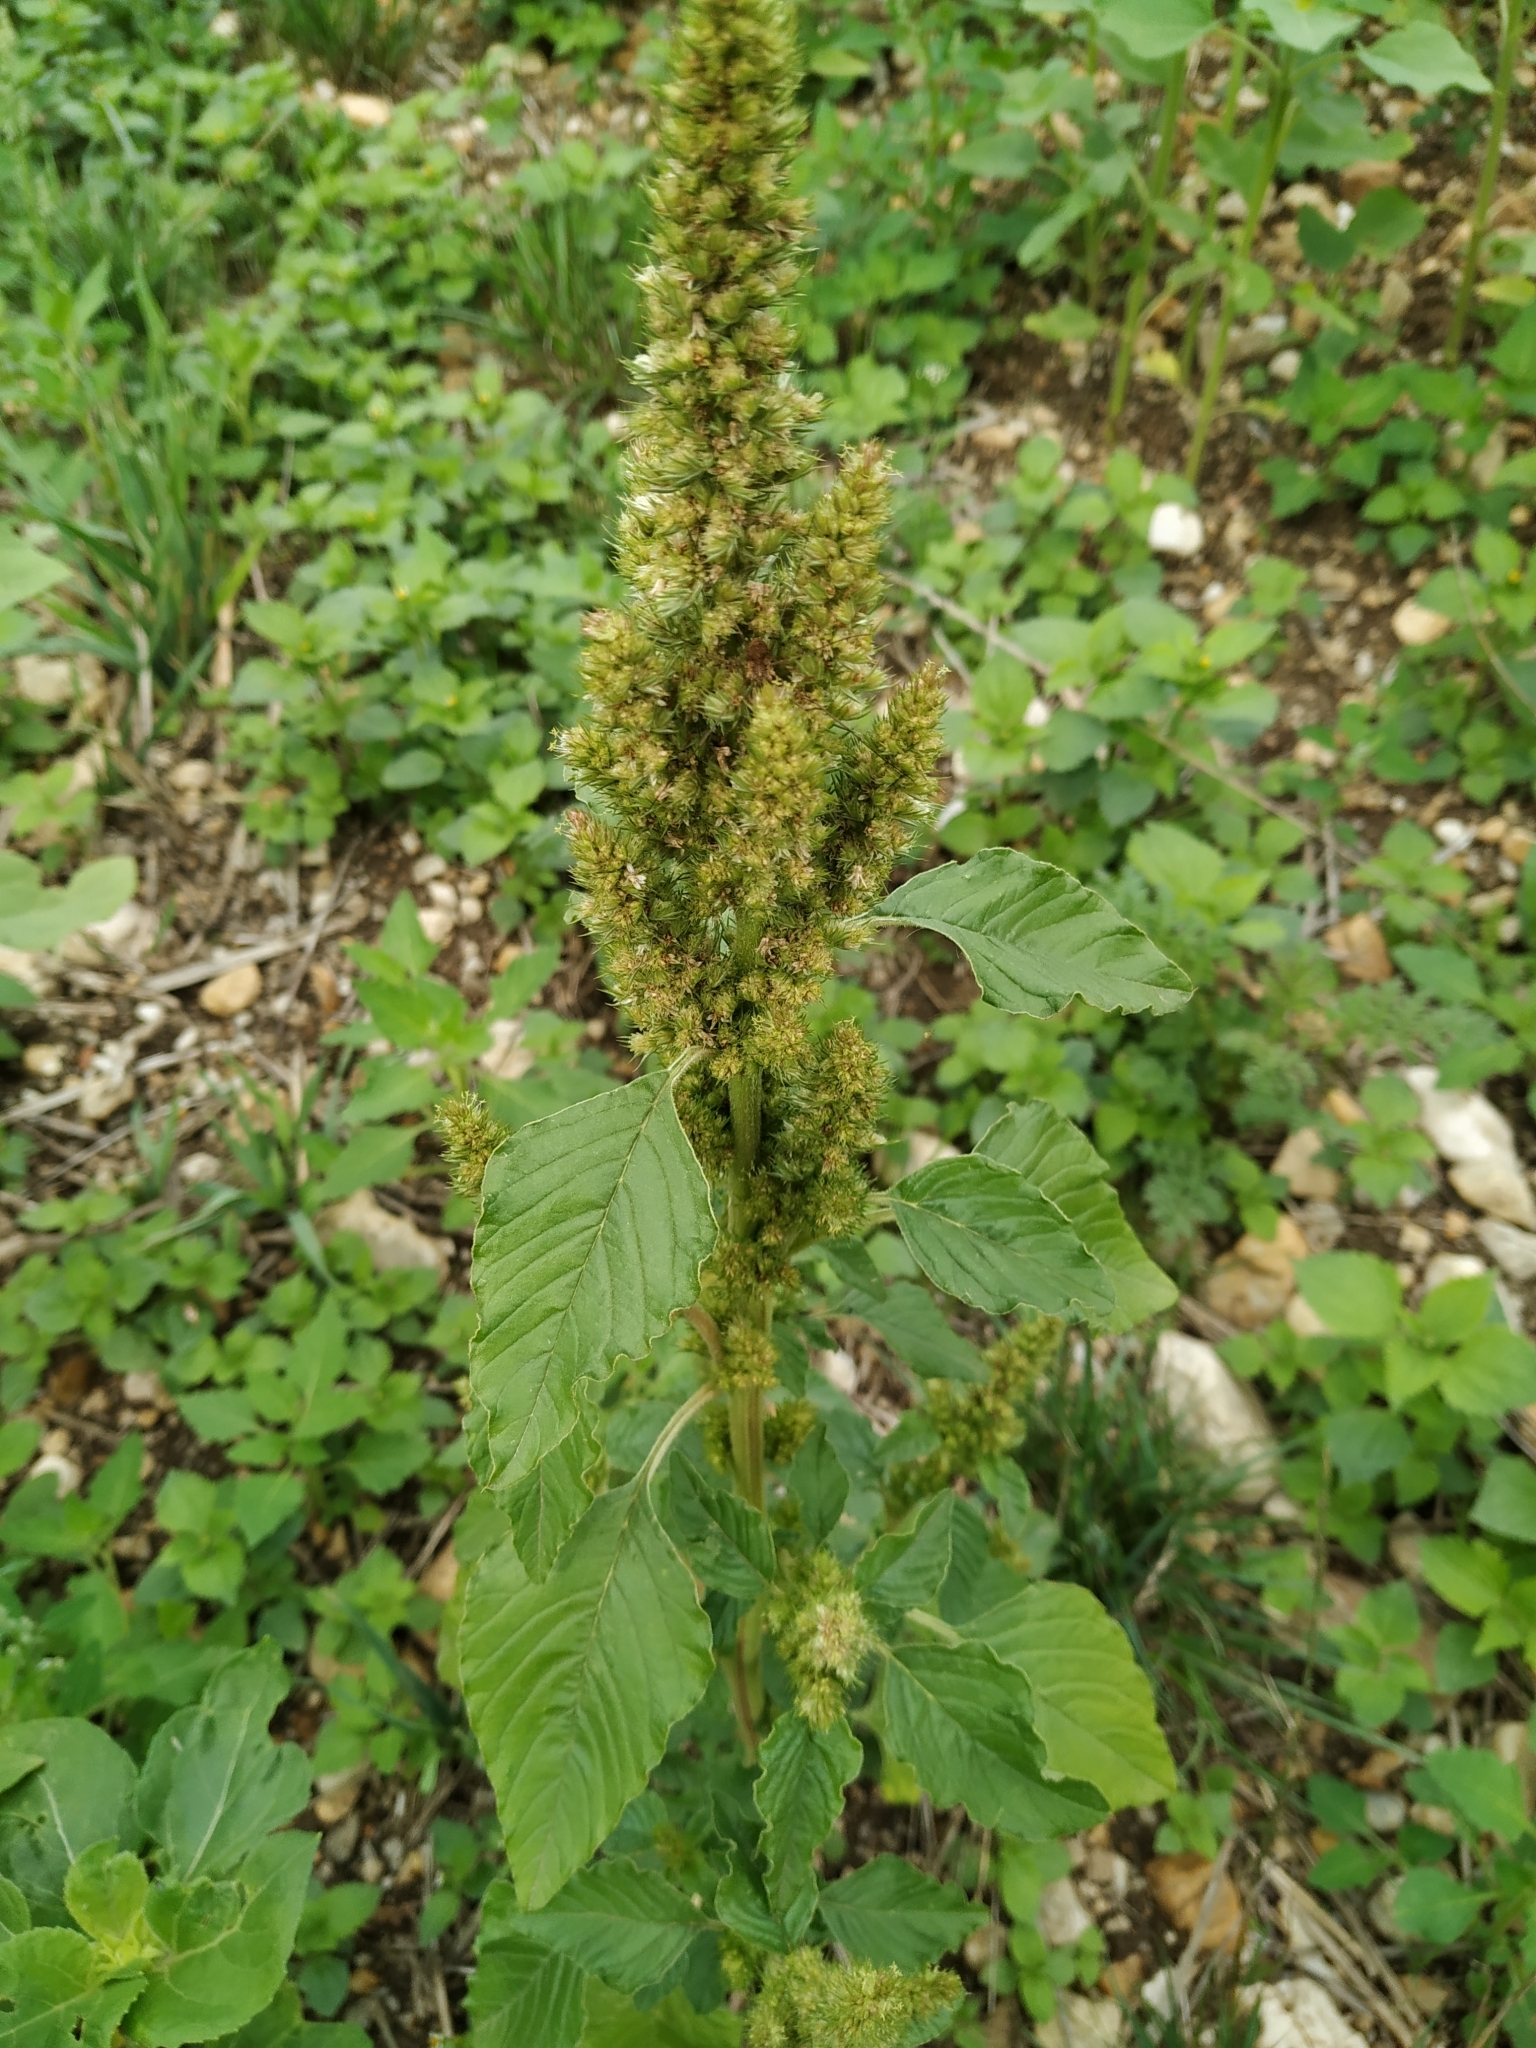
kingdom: Plantae
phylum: Tracheophyta
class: Magnoliopsida
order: Caryophyllales
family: Amaranthaceae
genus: Amaranthus
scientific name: Amaranthus retroflexus
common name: Redroot amaranth
